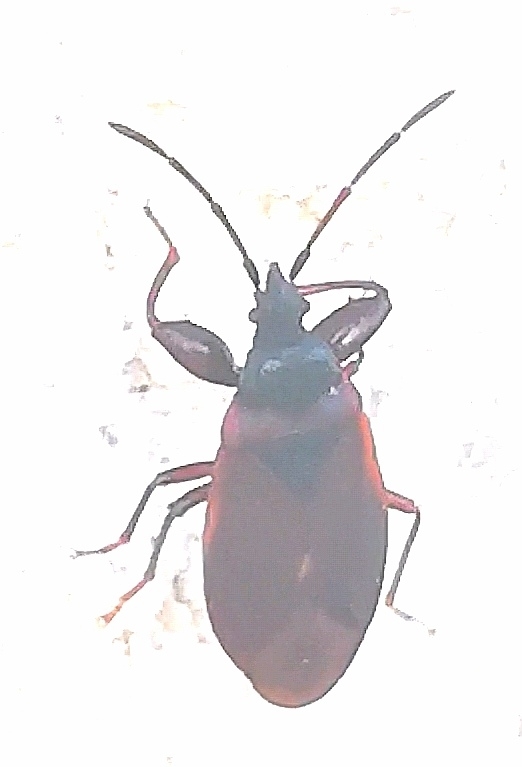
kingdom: Animalia
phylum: Arthropoda
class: Insecta
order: Hemiptera
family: Rhyparochromidae
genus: Gastrodes
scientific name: Gastrodes grossipes
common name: Pine cone bug
